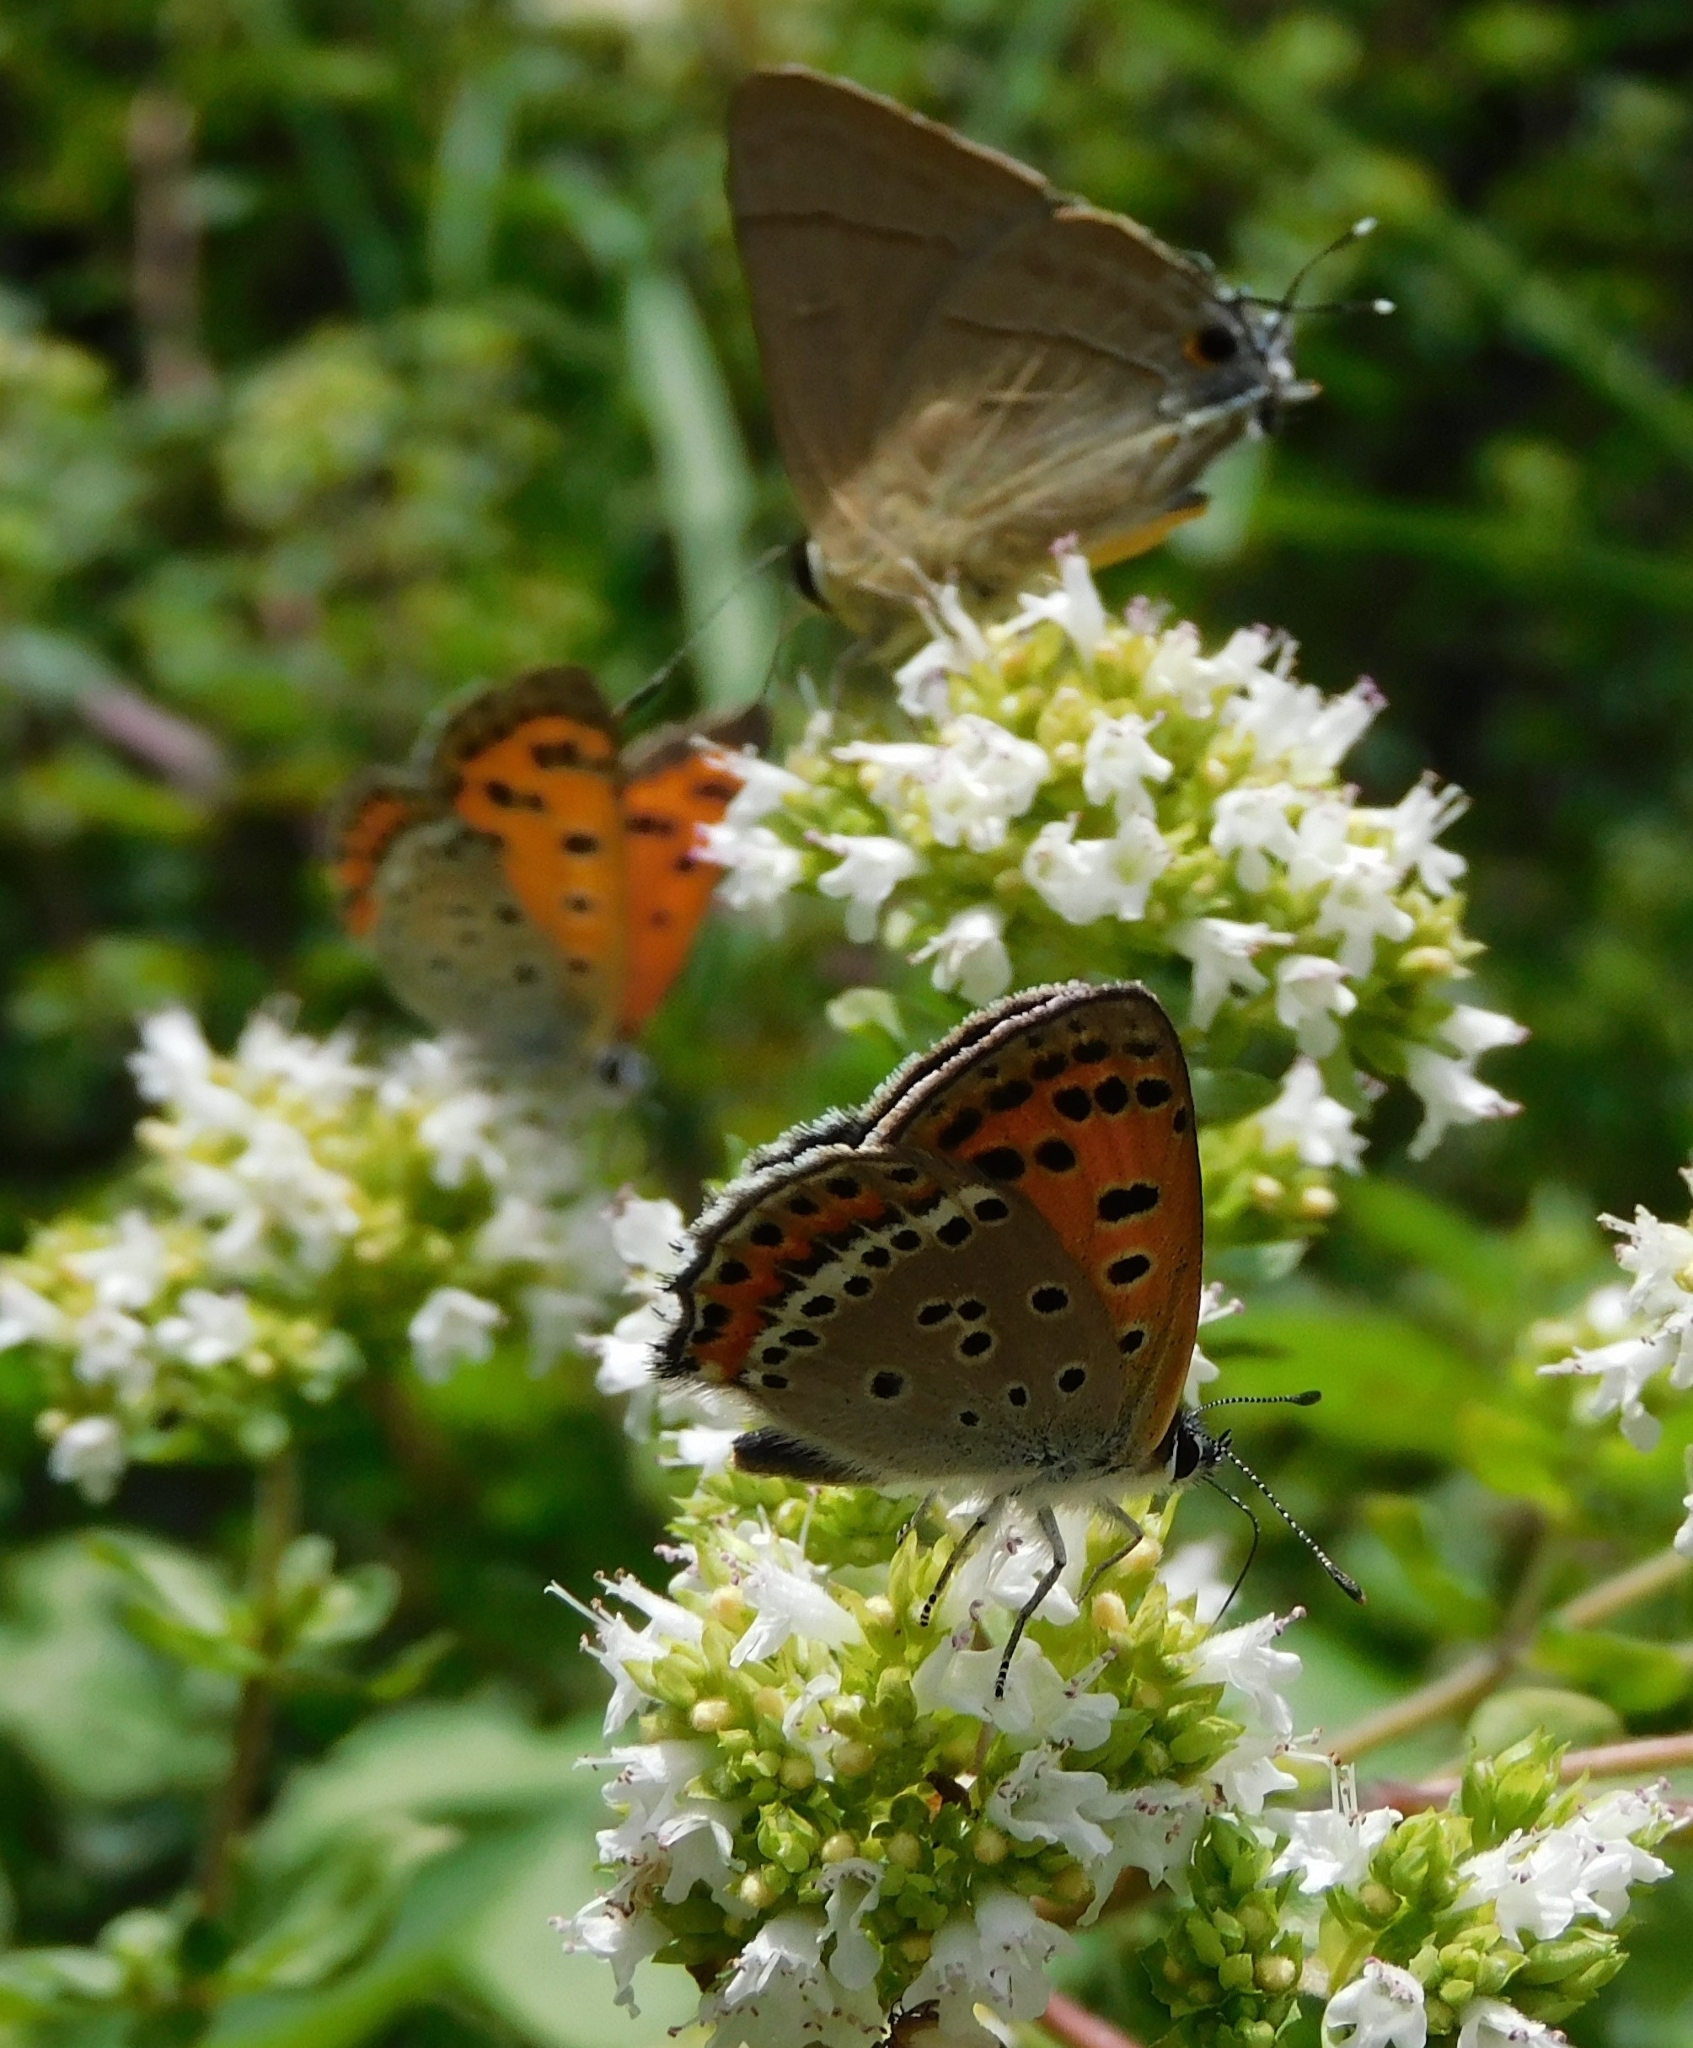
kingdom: Animalia
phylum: Arthropoda
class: Insecta
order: Lepidoptera
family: Lycaenidae
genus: Lycaena
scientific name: Lycaena panava
